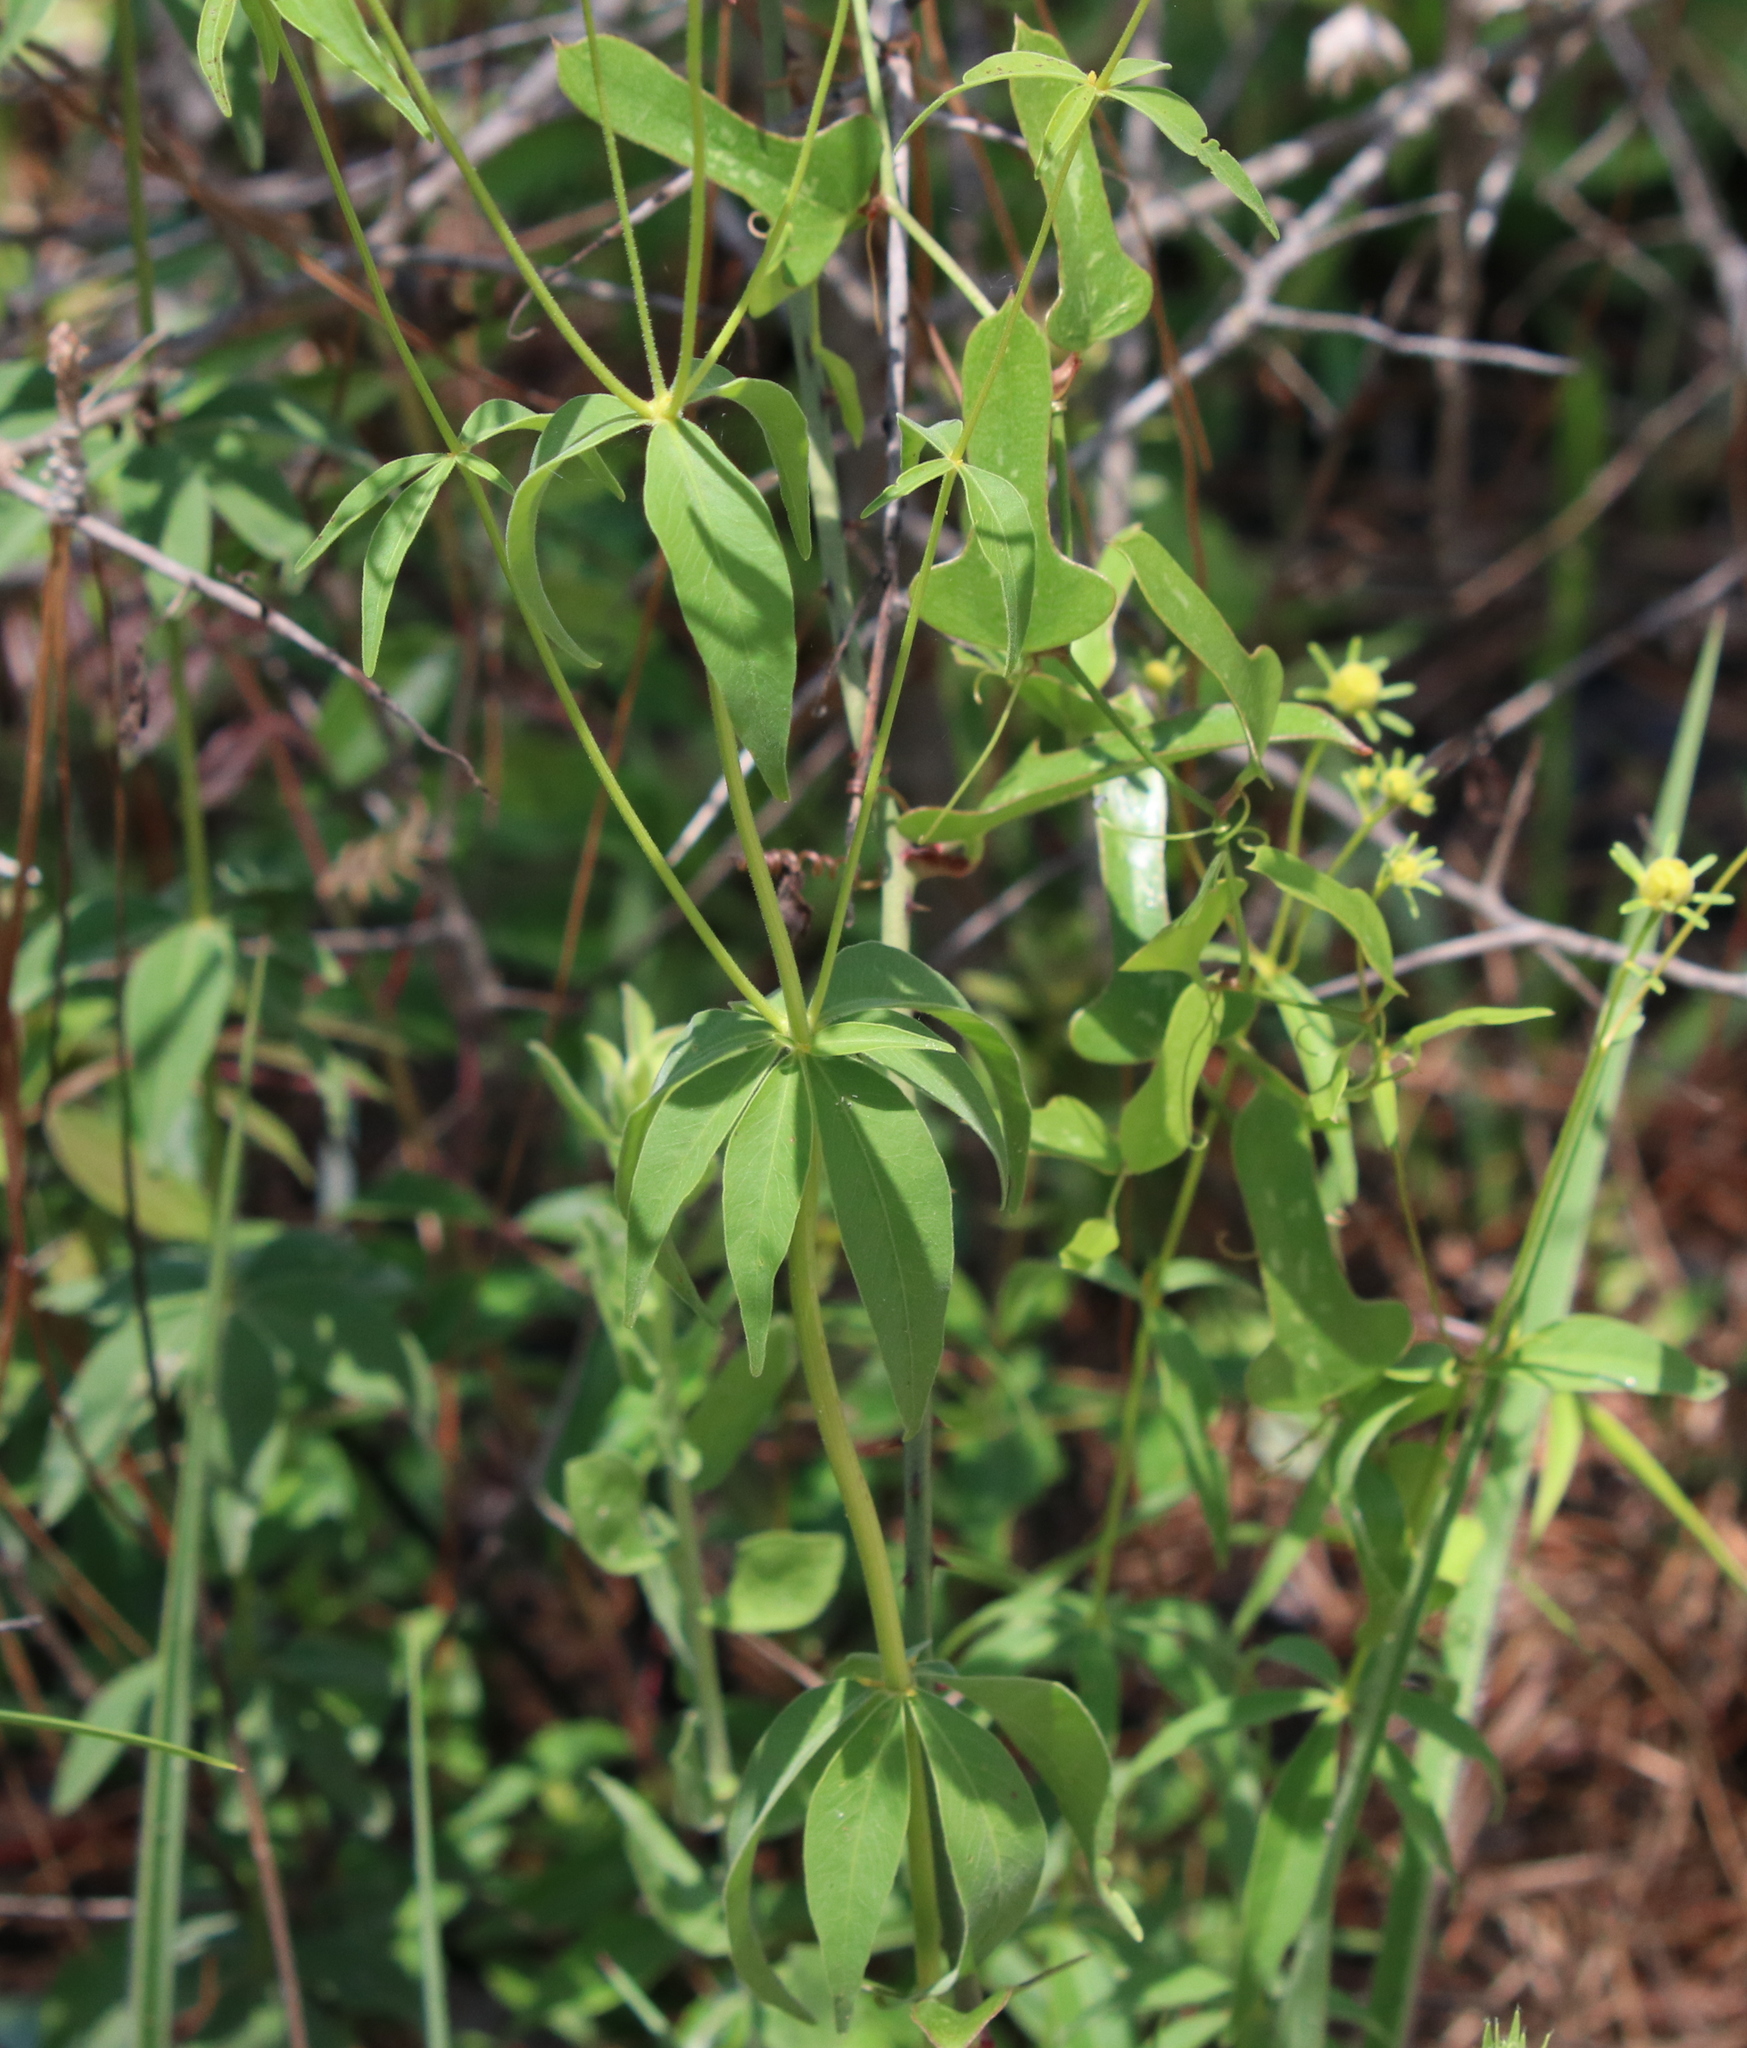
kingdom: Plantae
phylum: Tracheophyta
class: Magnoliopsida
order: Asterales
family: Asteraceae
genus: Coreopsis
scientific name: Coreopsis major
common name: Forest tickseed
